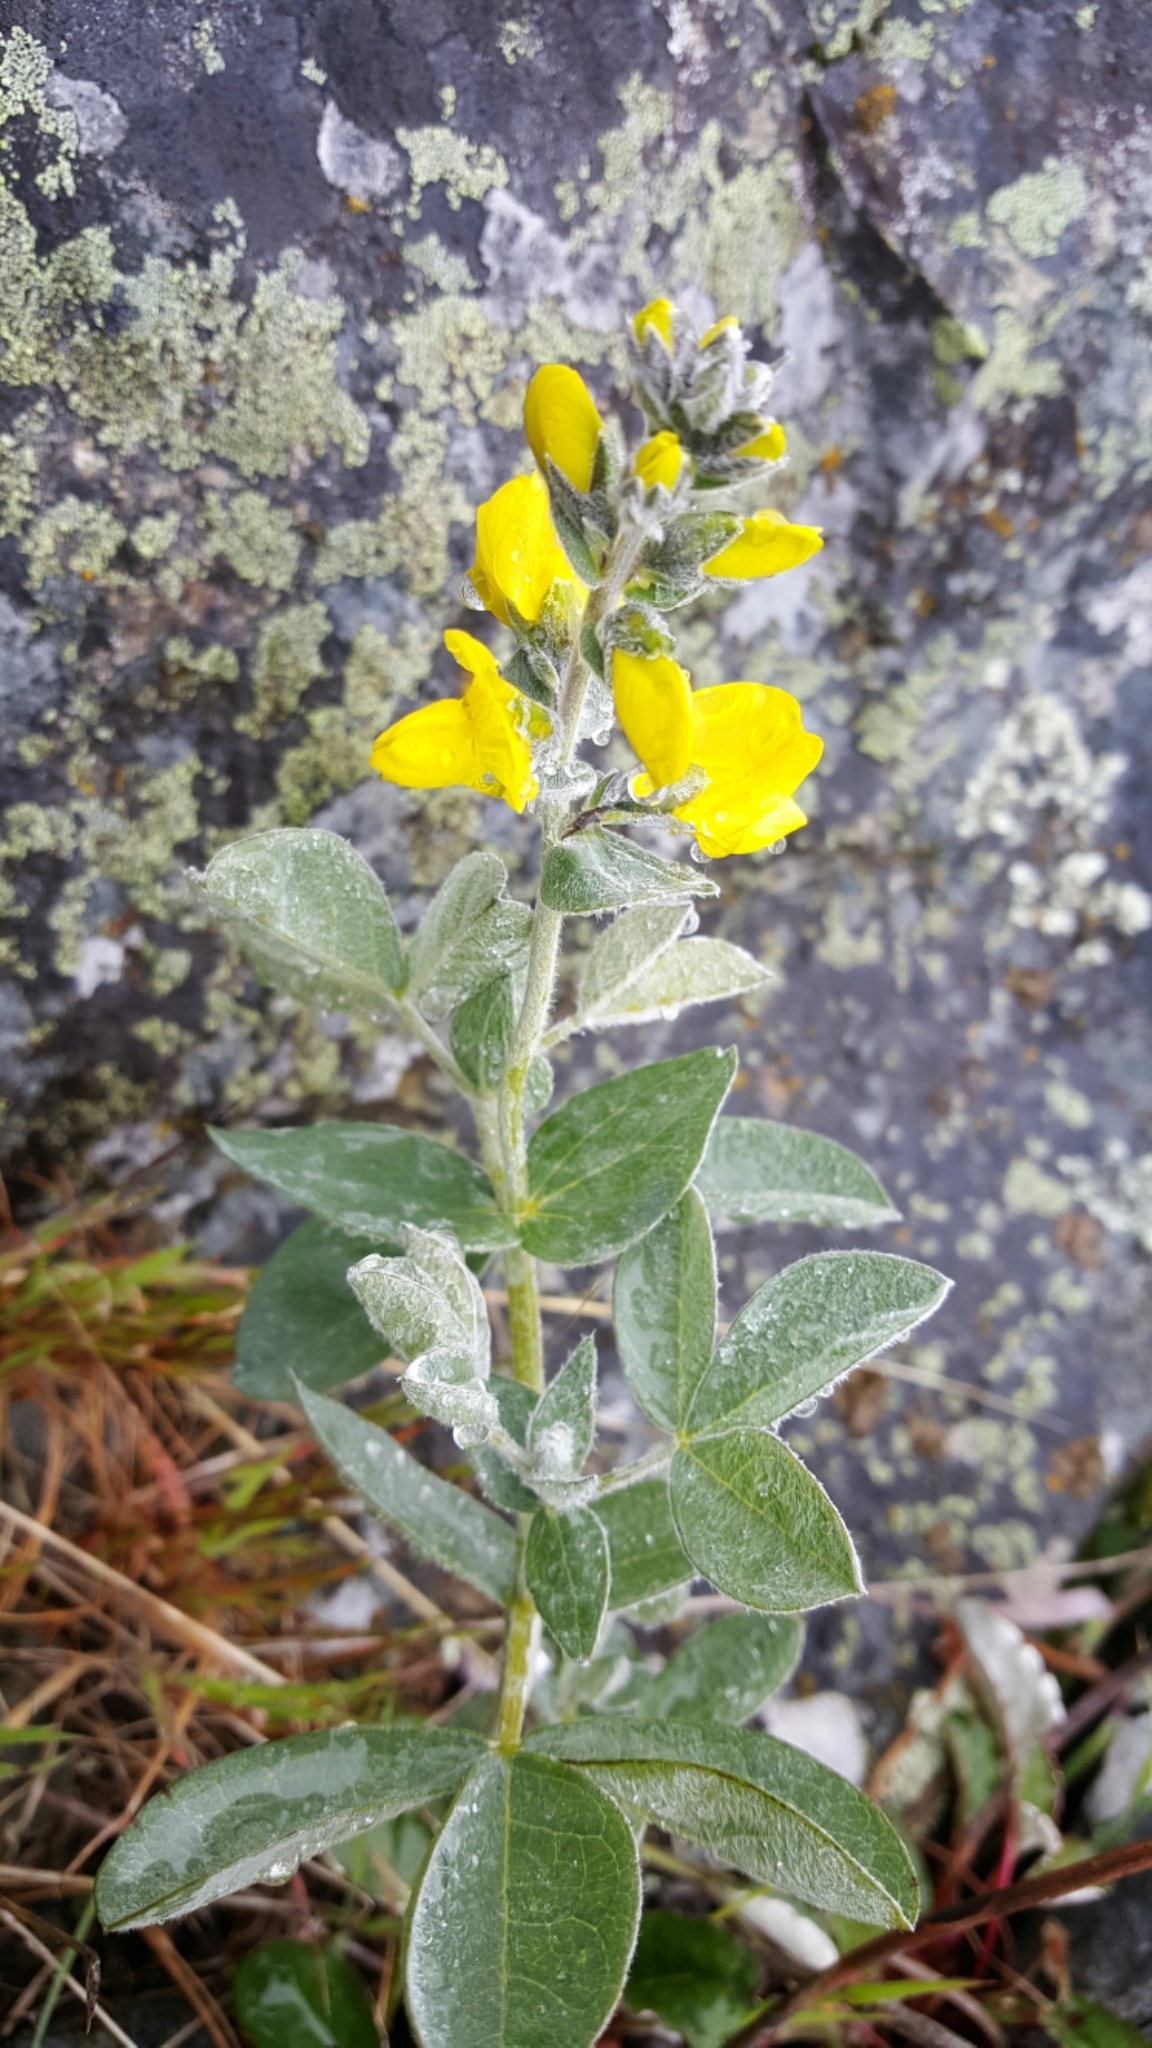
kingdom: Plantae
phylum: Tracheophyta
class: Magnoliopsida
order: Fabales
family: Fabaceae
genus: Thermopsis
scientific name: Thermopsis californica
